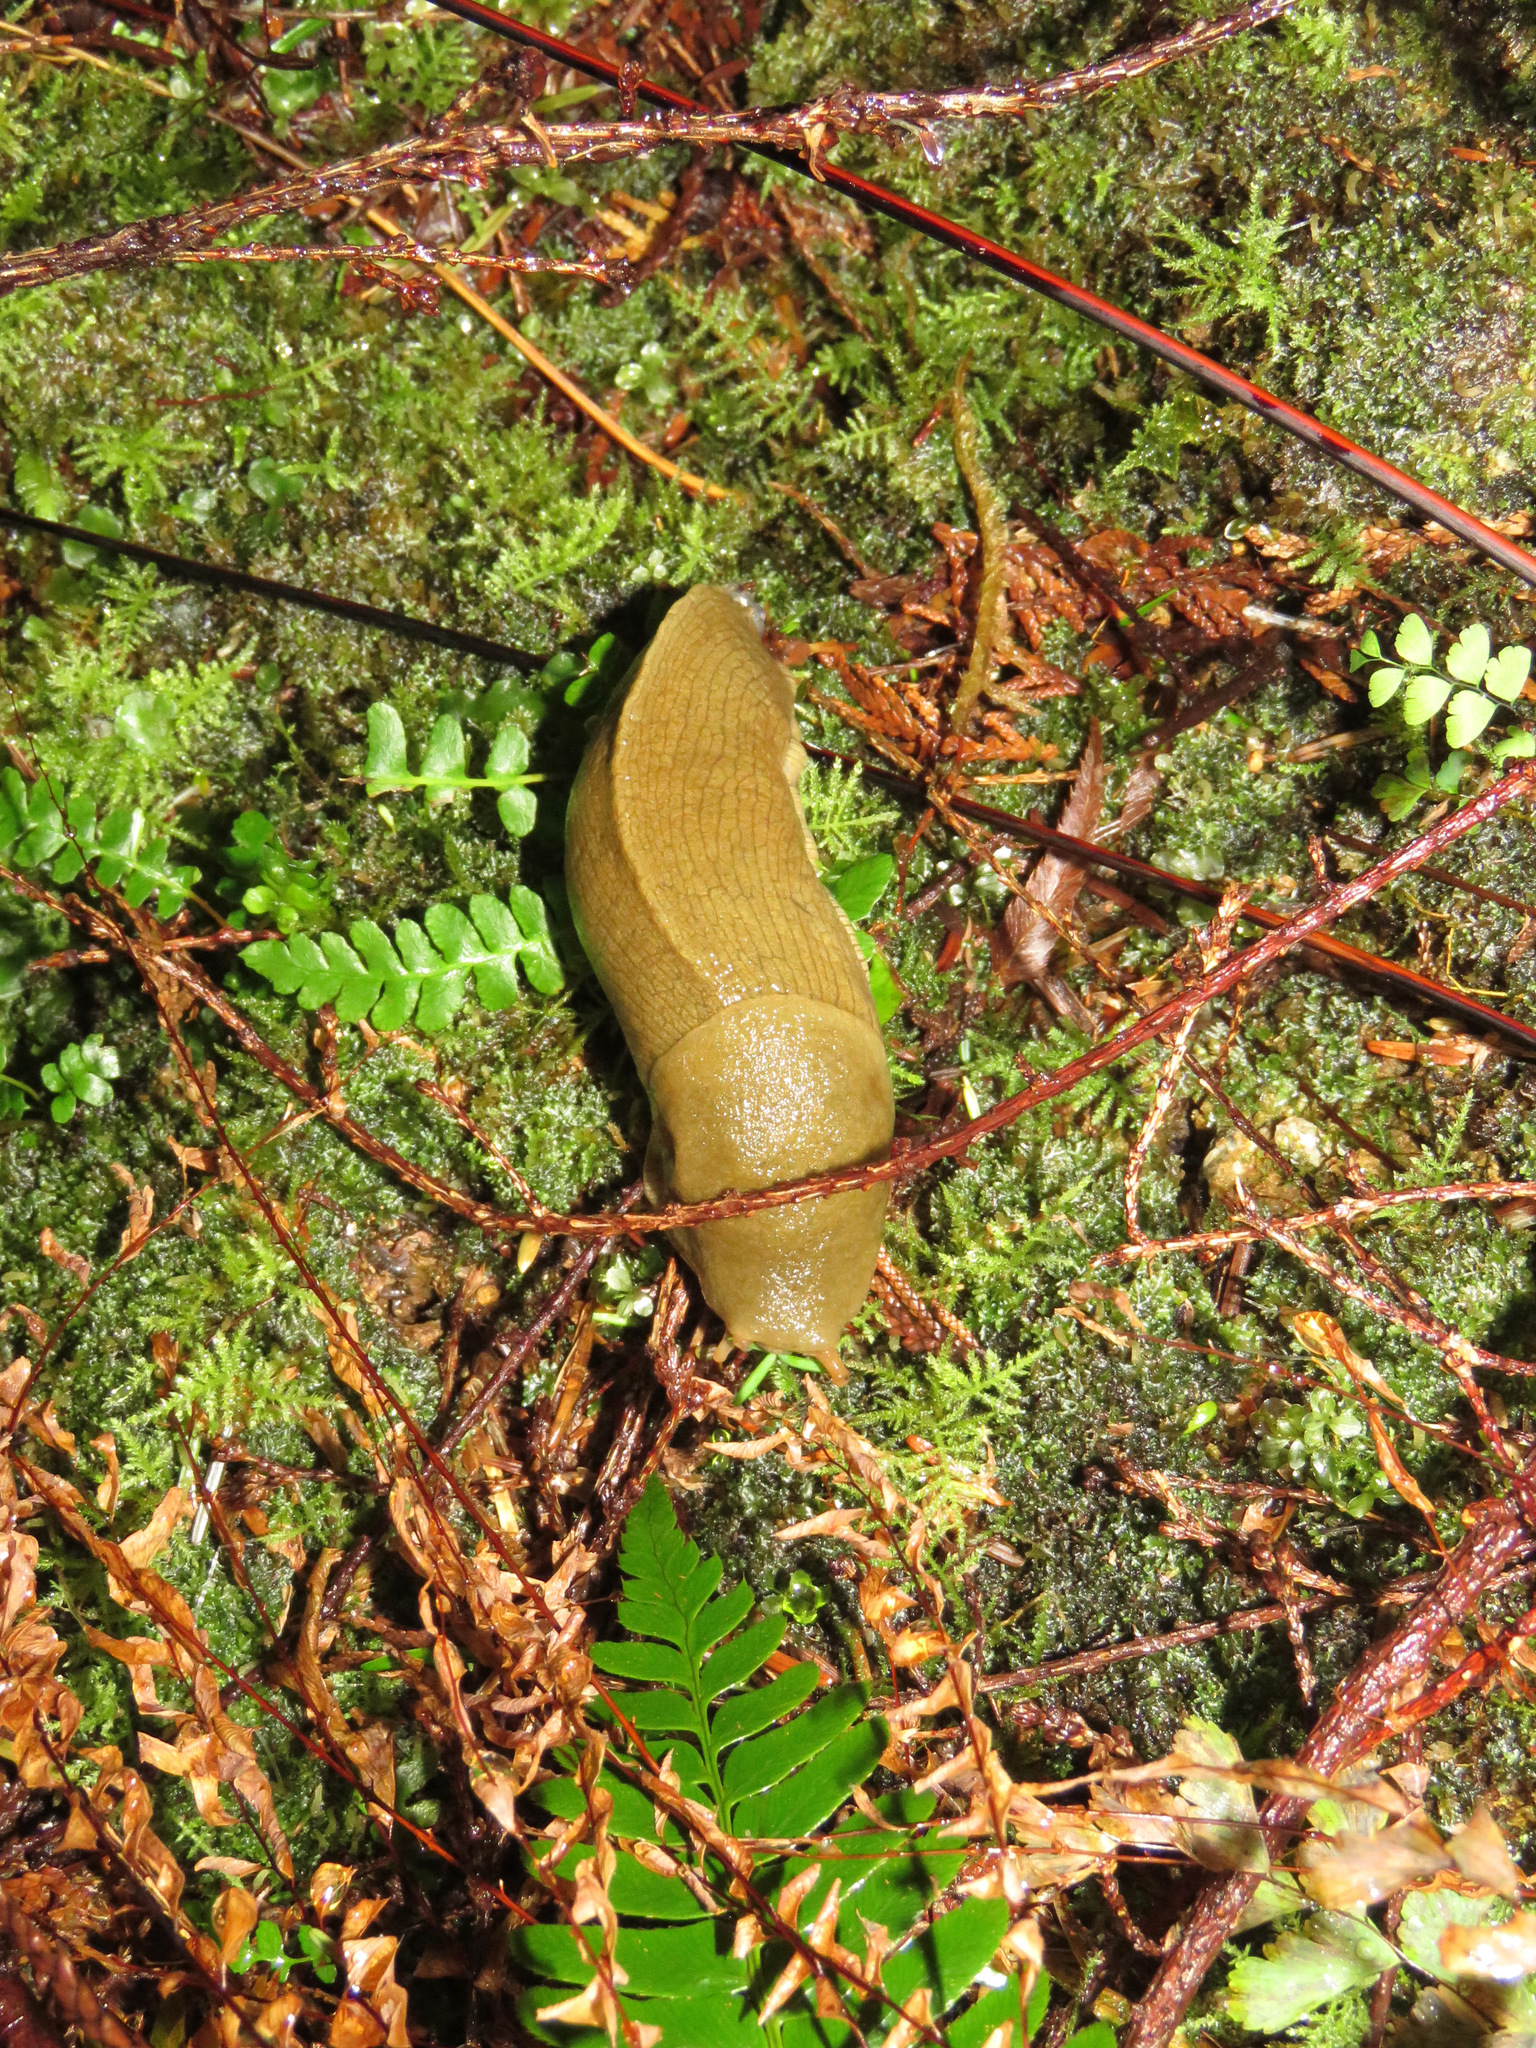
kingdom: Animalia
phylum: Mollusca
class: Gastropoda
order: Stylommatophora
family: Ariolimacidae
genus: Ariolimax
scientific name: Ariolimax columbianus
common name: Pacific banana slug
